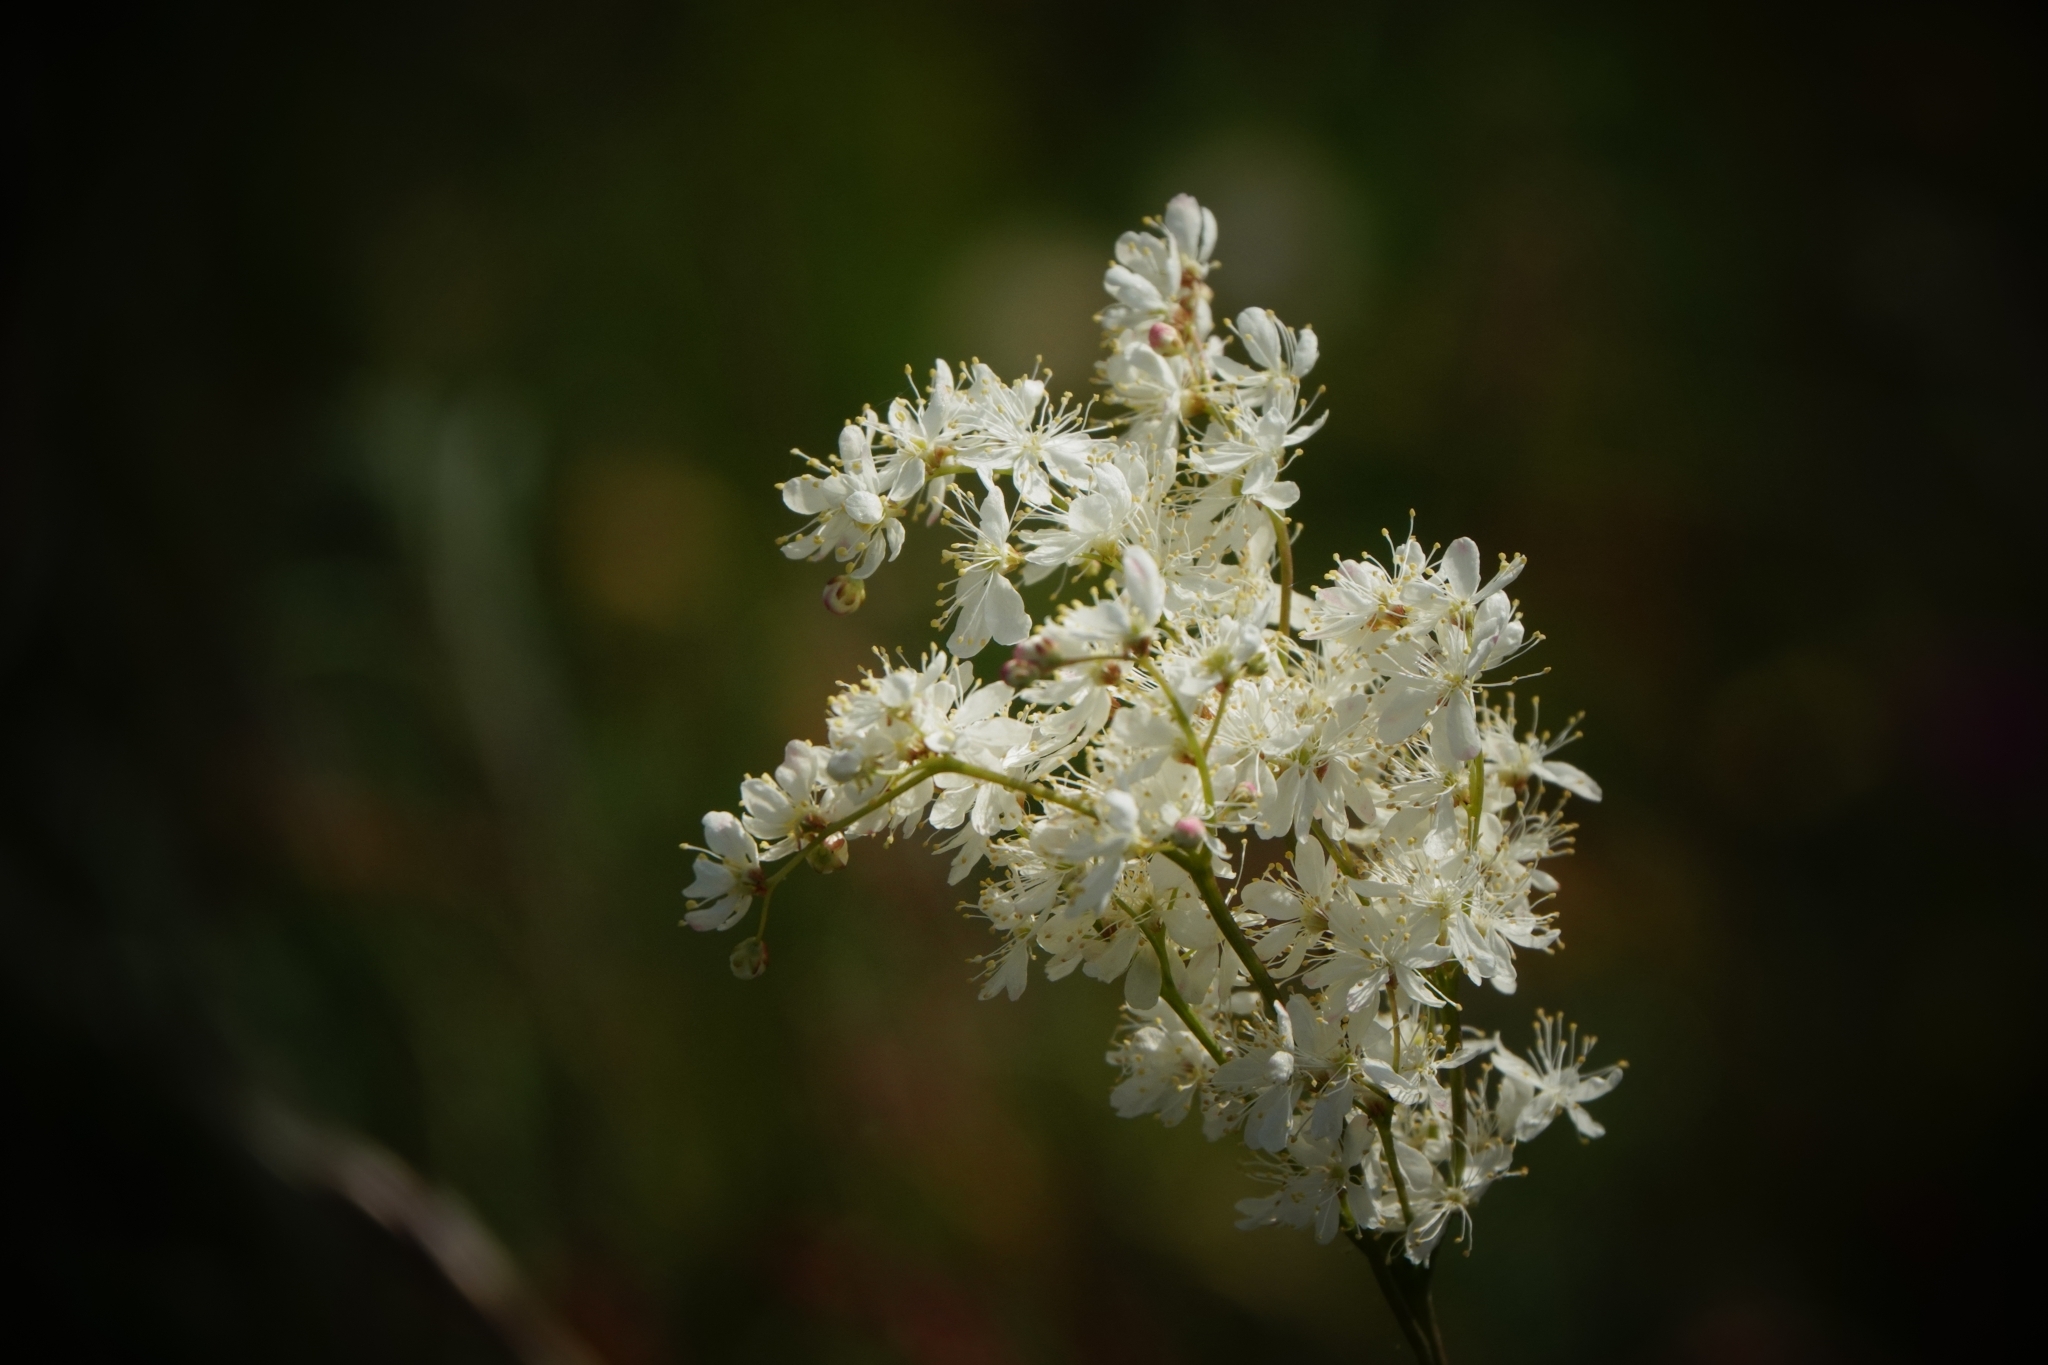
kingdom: Plantae
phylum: Tracheophyta
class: Magnoliopsida
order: Rosales
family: Rosaceae
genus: Filipendula
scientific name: Filipendula vulgaris
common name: Dropwort
